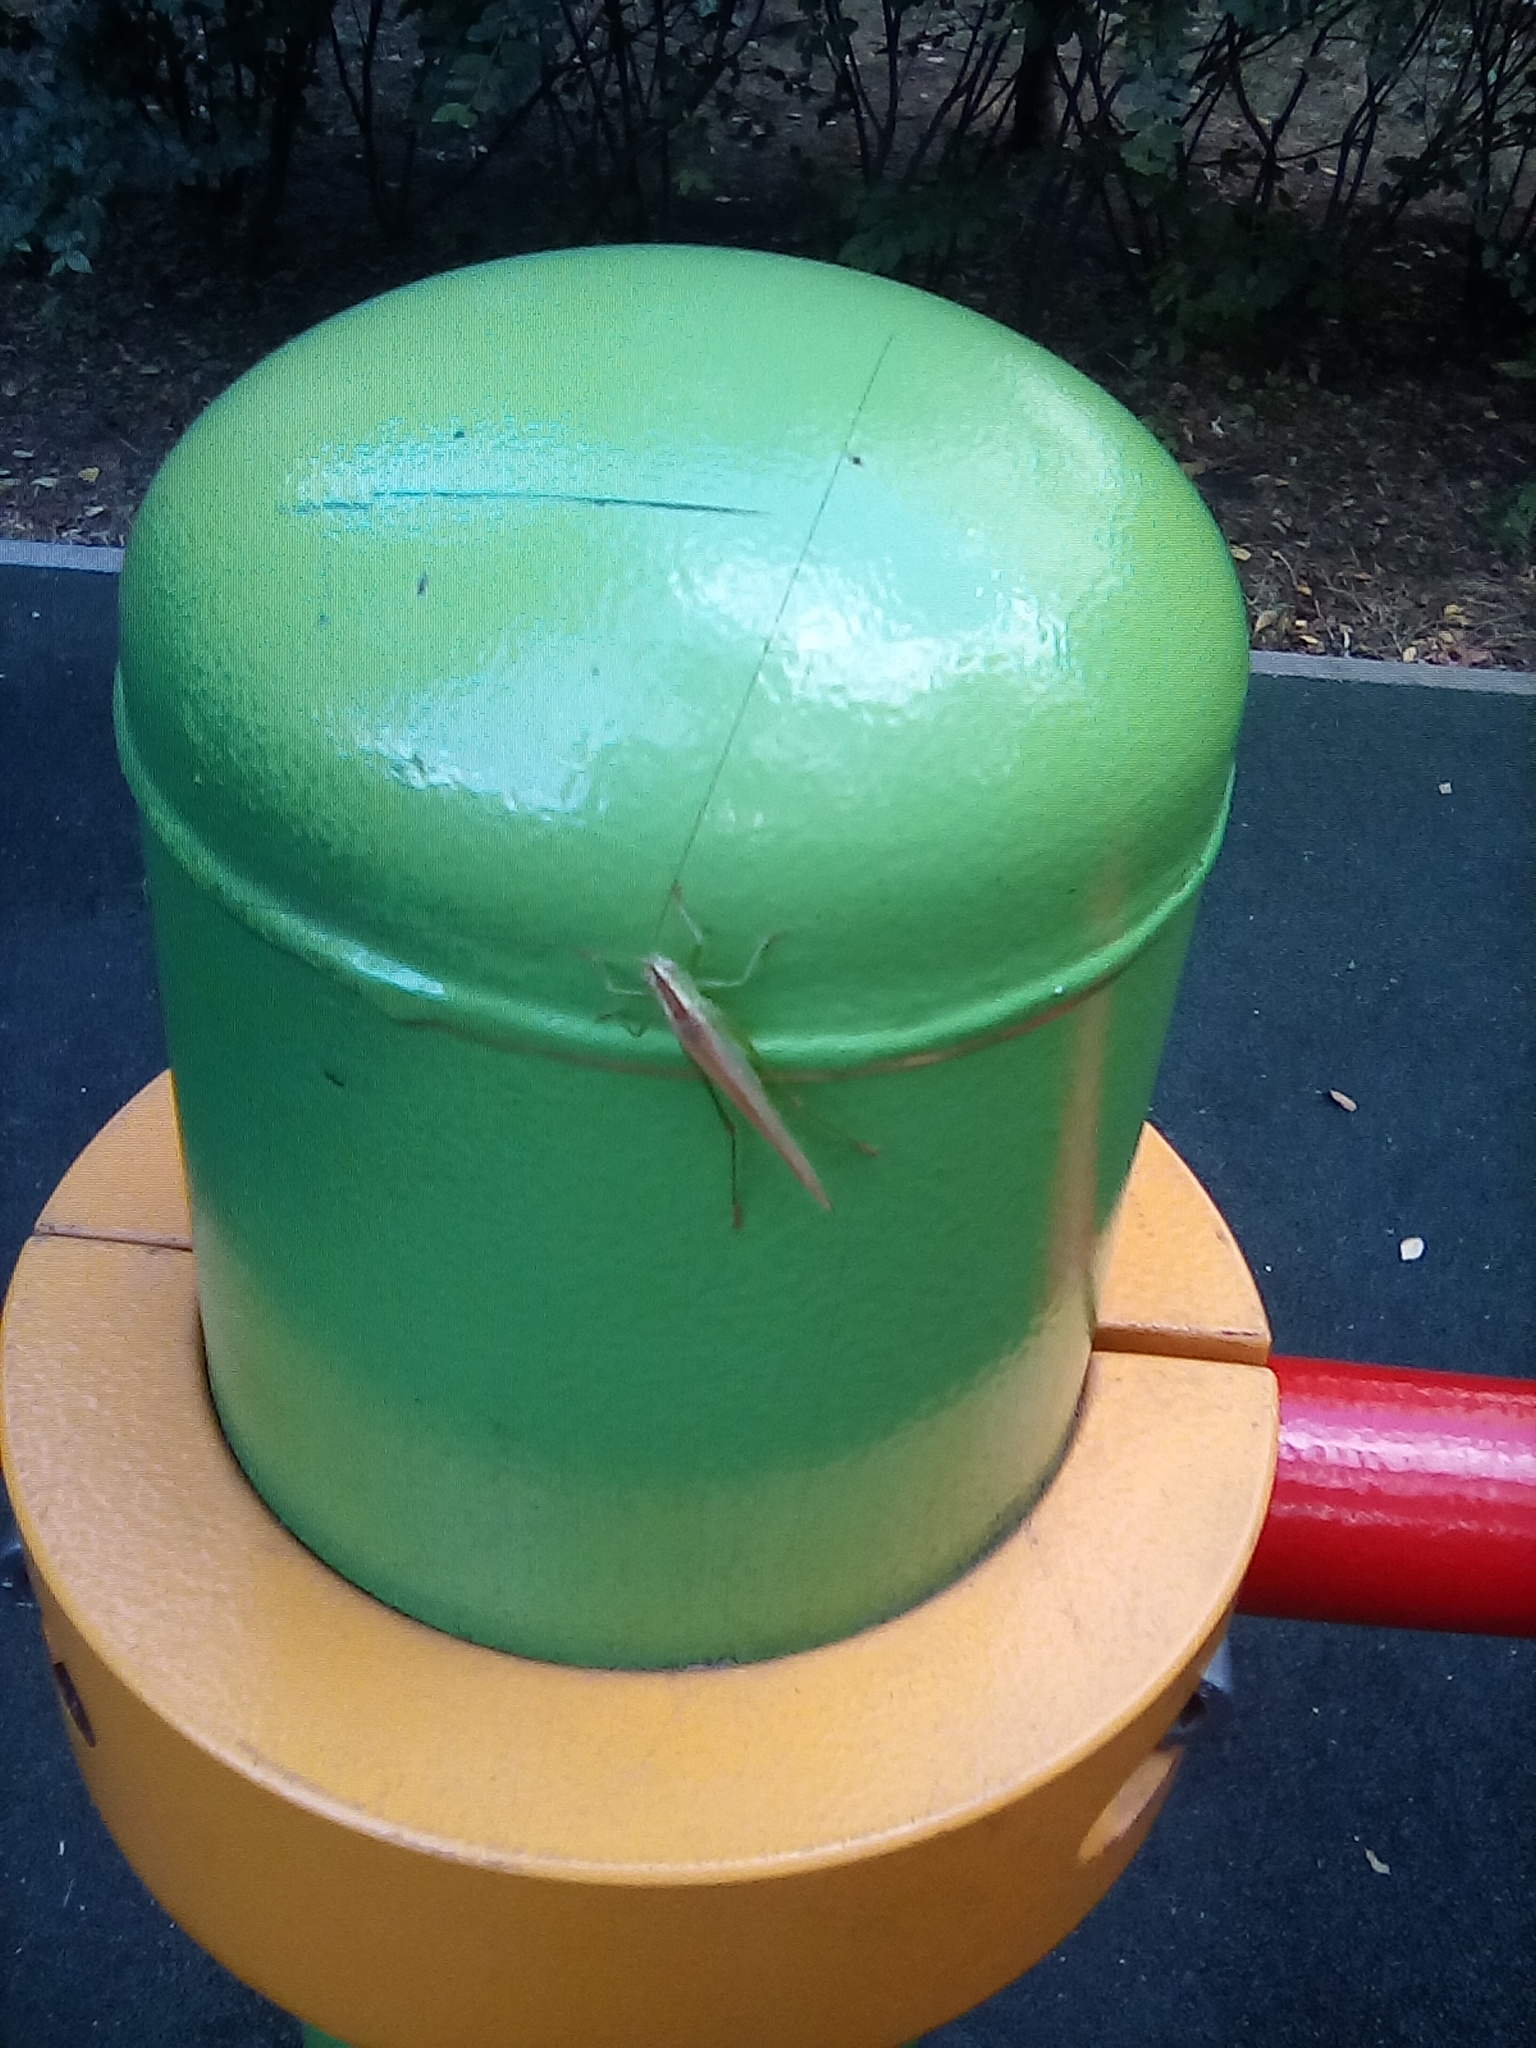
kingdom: Animalia
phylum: Arthropoda
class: Insecta
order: Orthoptera
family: Tettigoniidae
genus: Conocephalus
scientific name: Conocephalus fuscus
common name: Long-winged conehead
